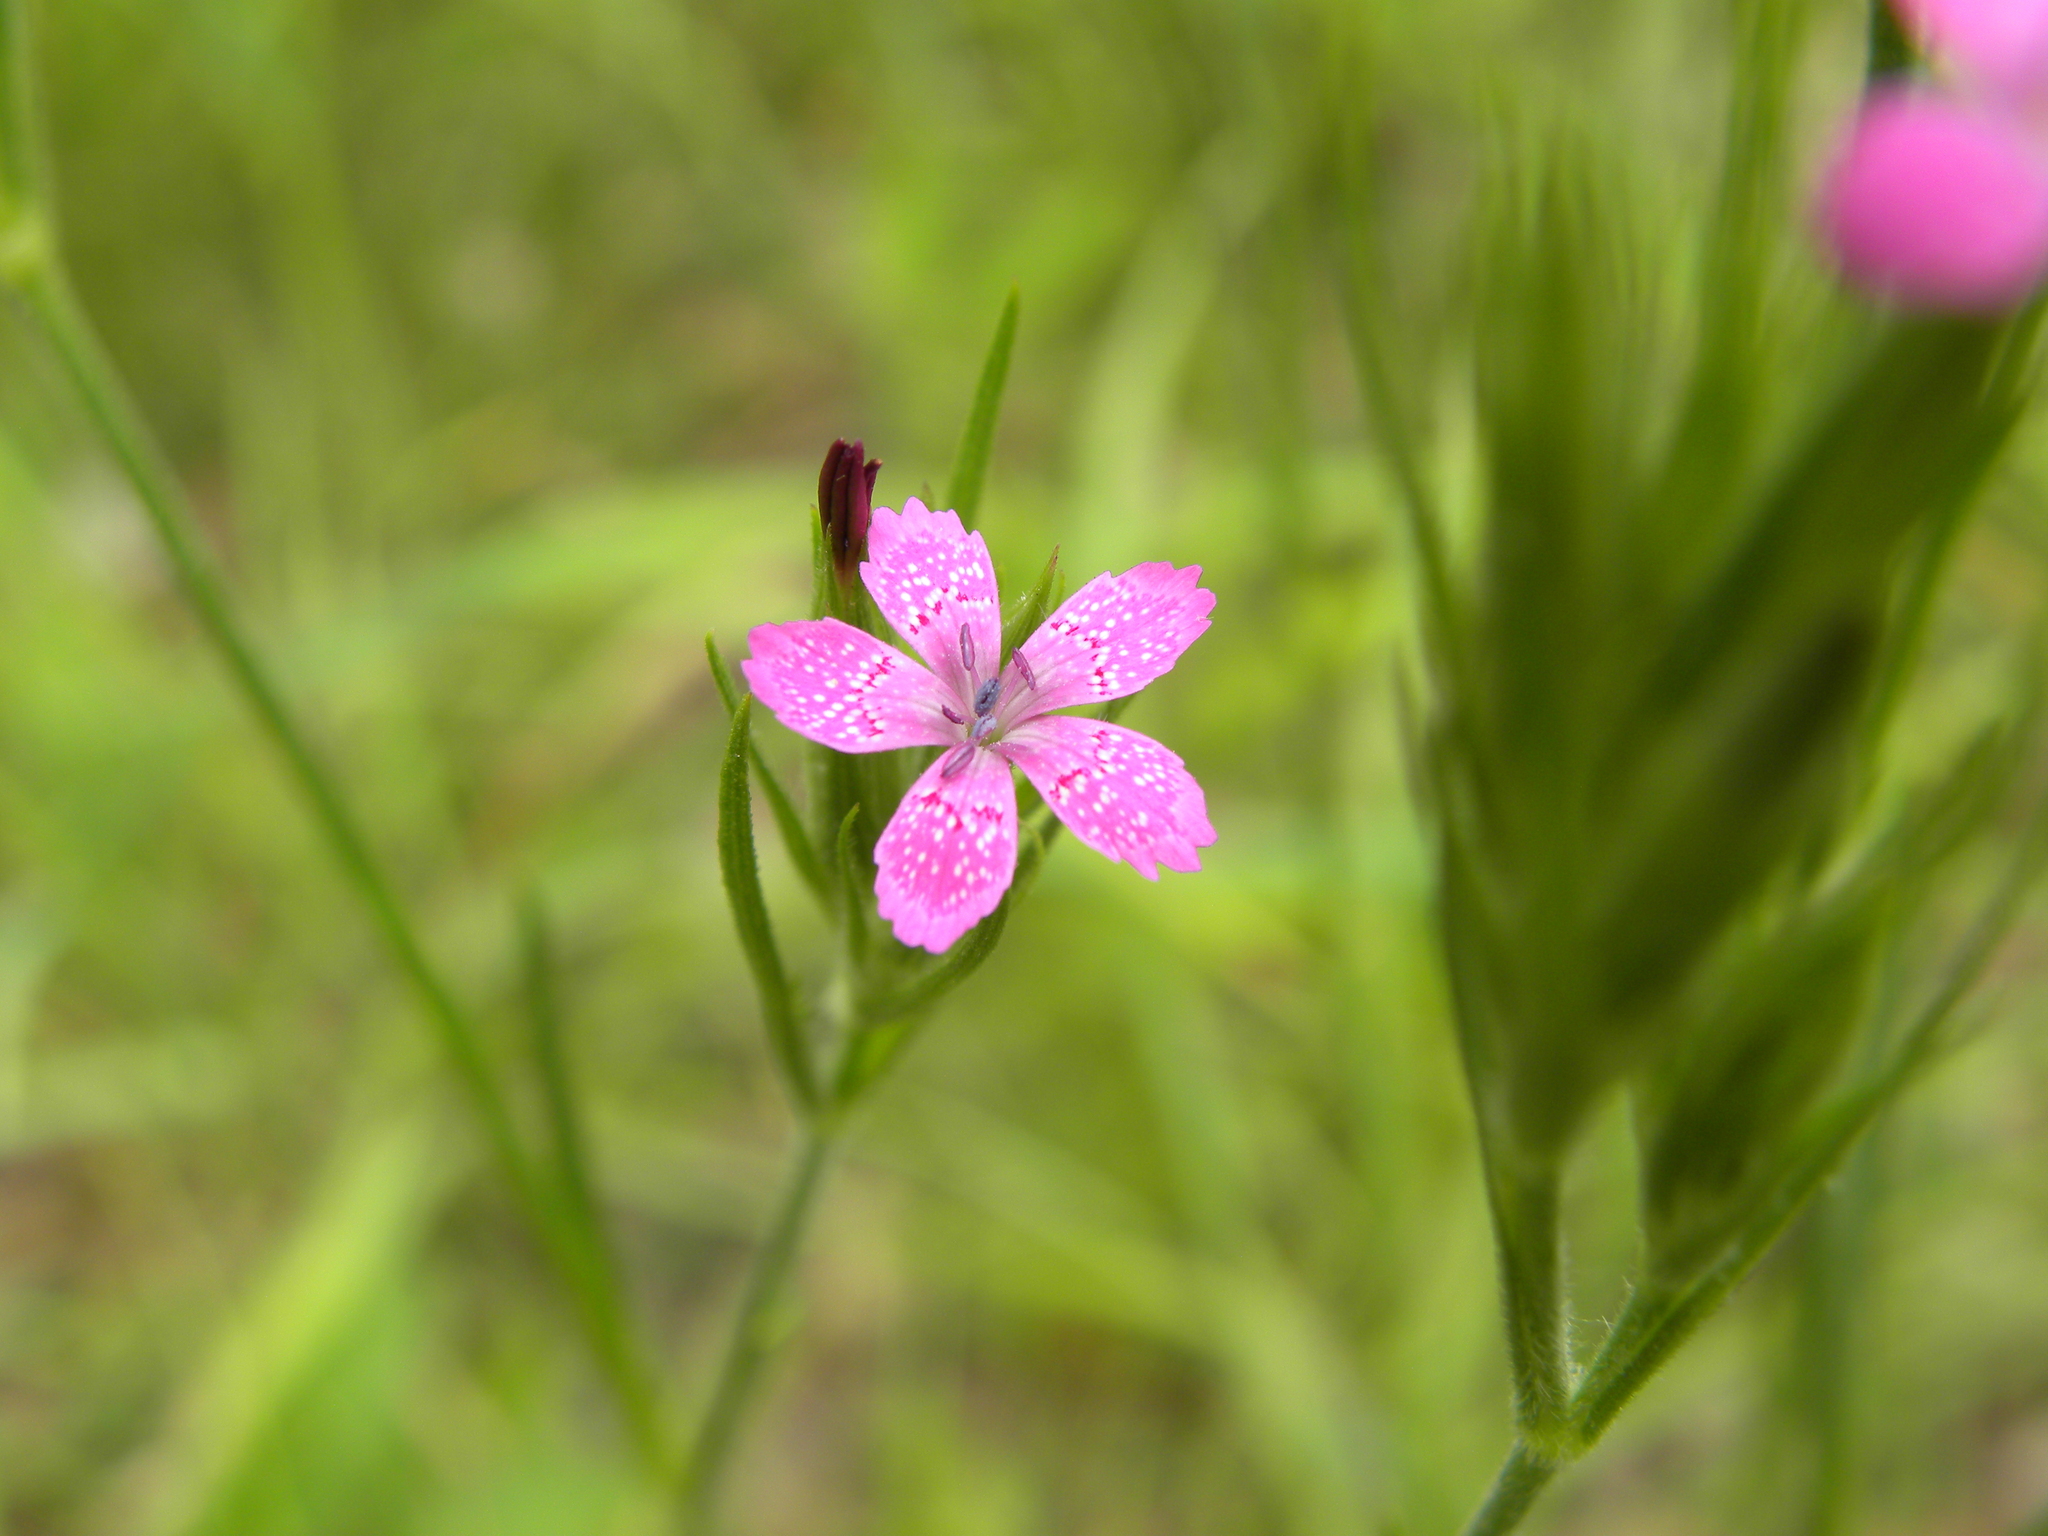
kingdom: Plantae
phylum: Tracheophyta
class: Magnoliopsida
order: Caryophyllales
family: Caryophyllaceae
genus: Dianthus
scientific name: Dianthus armeria
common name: Deptford pink
